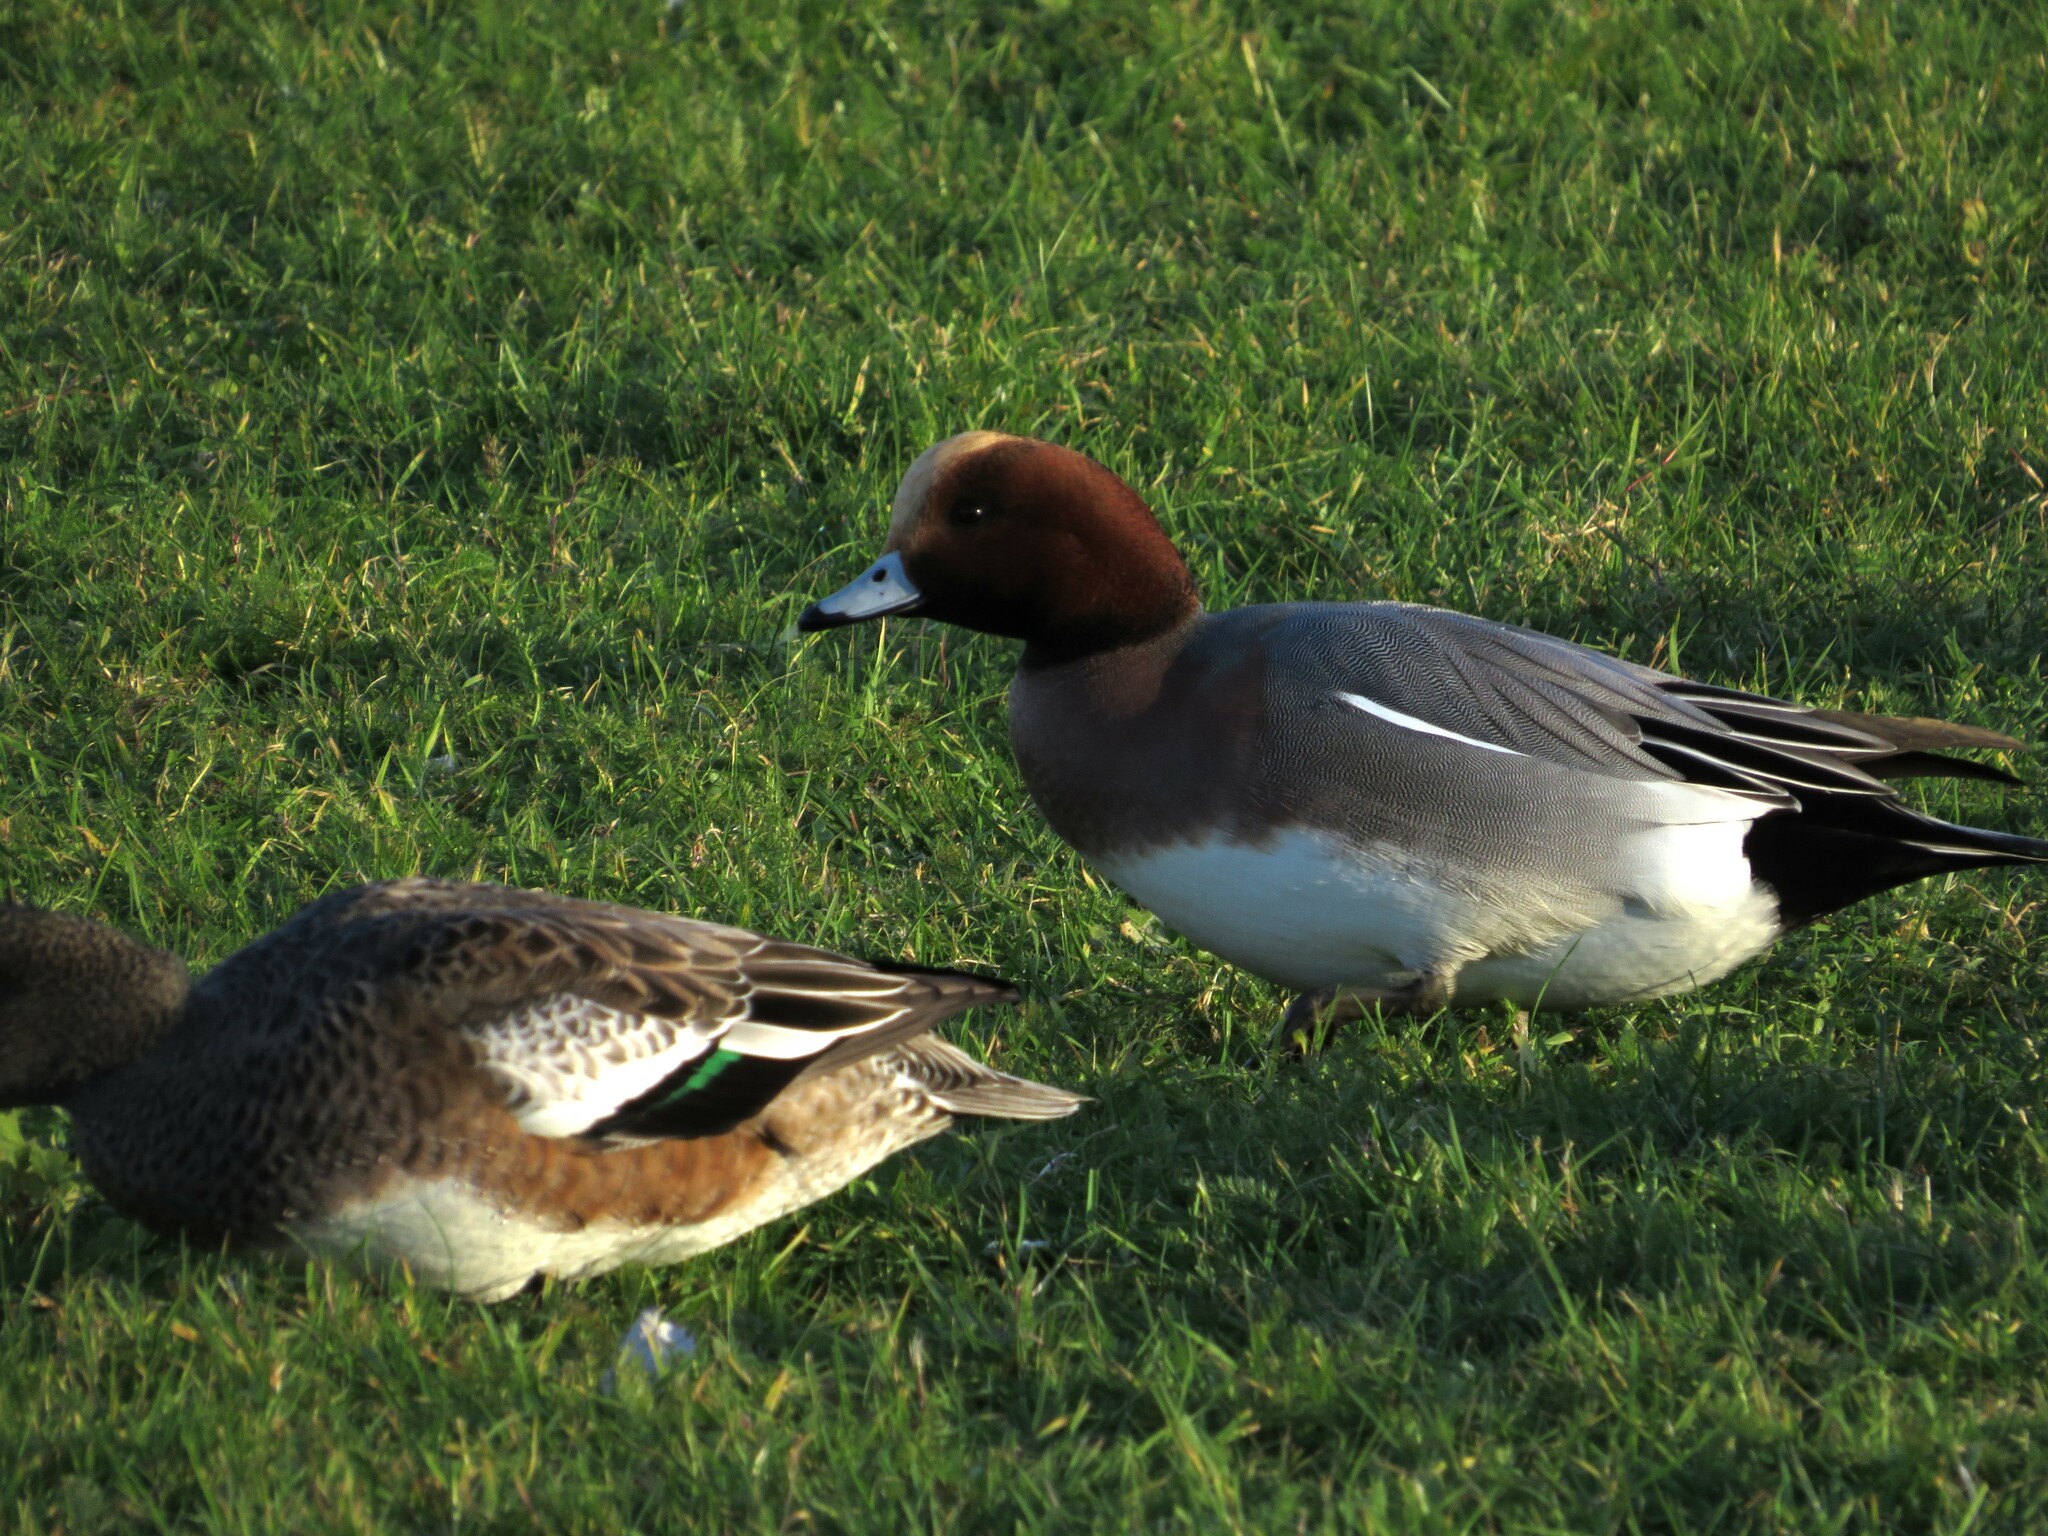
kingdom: Animalia
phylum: Chordata
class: Aves
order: Anseriformes
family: Anatidae
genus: Mareca
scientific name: Mareca penelope
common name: Eurasian wigeon
